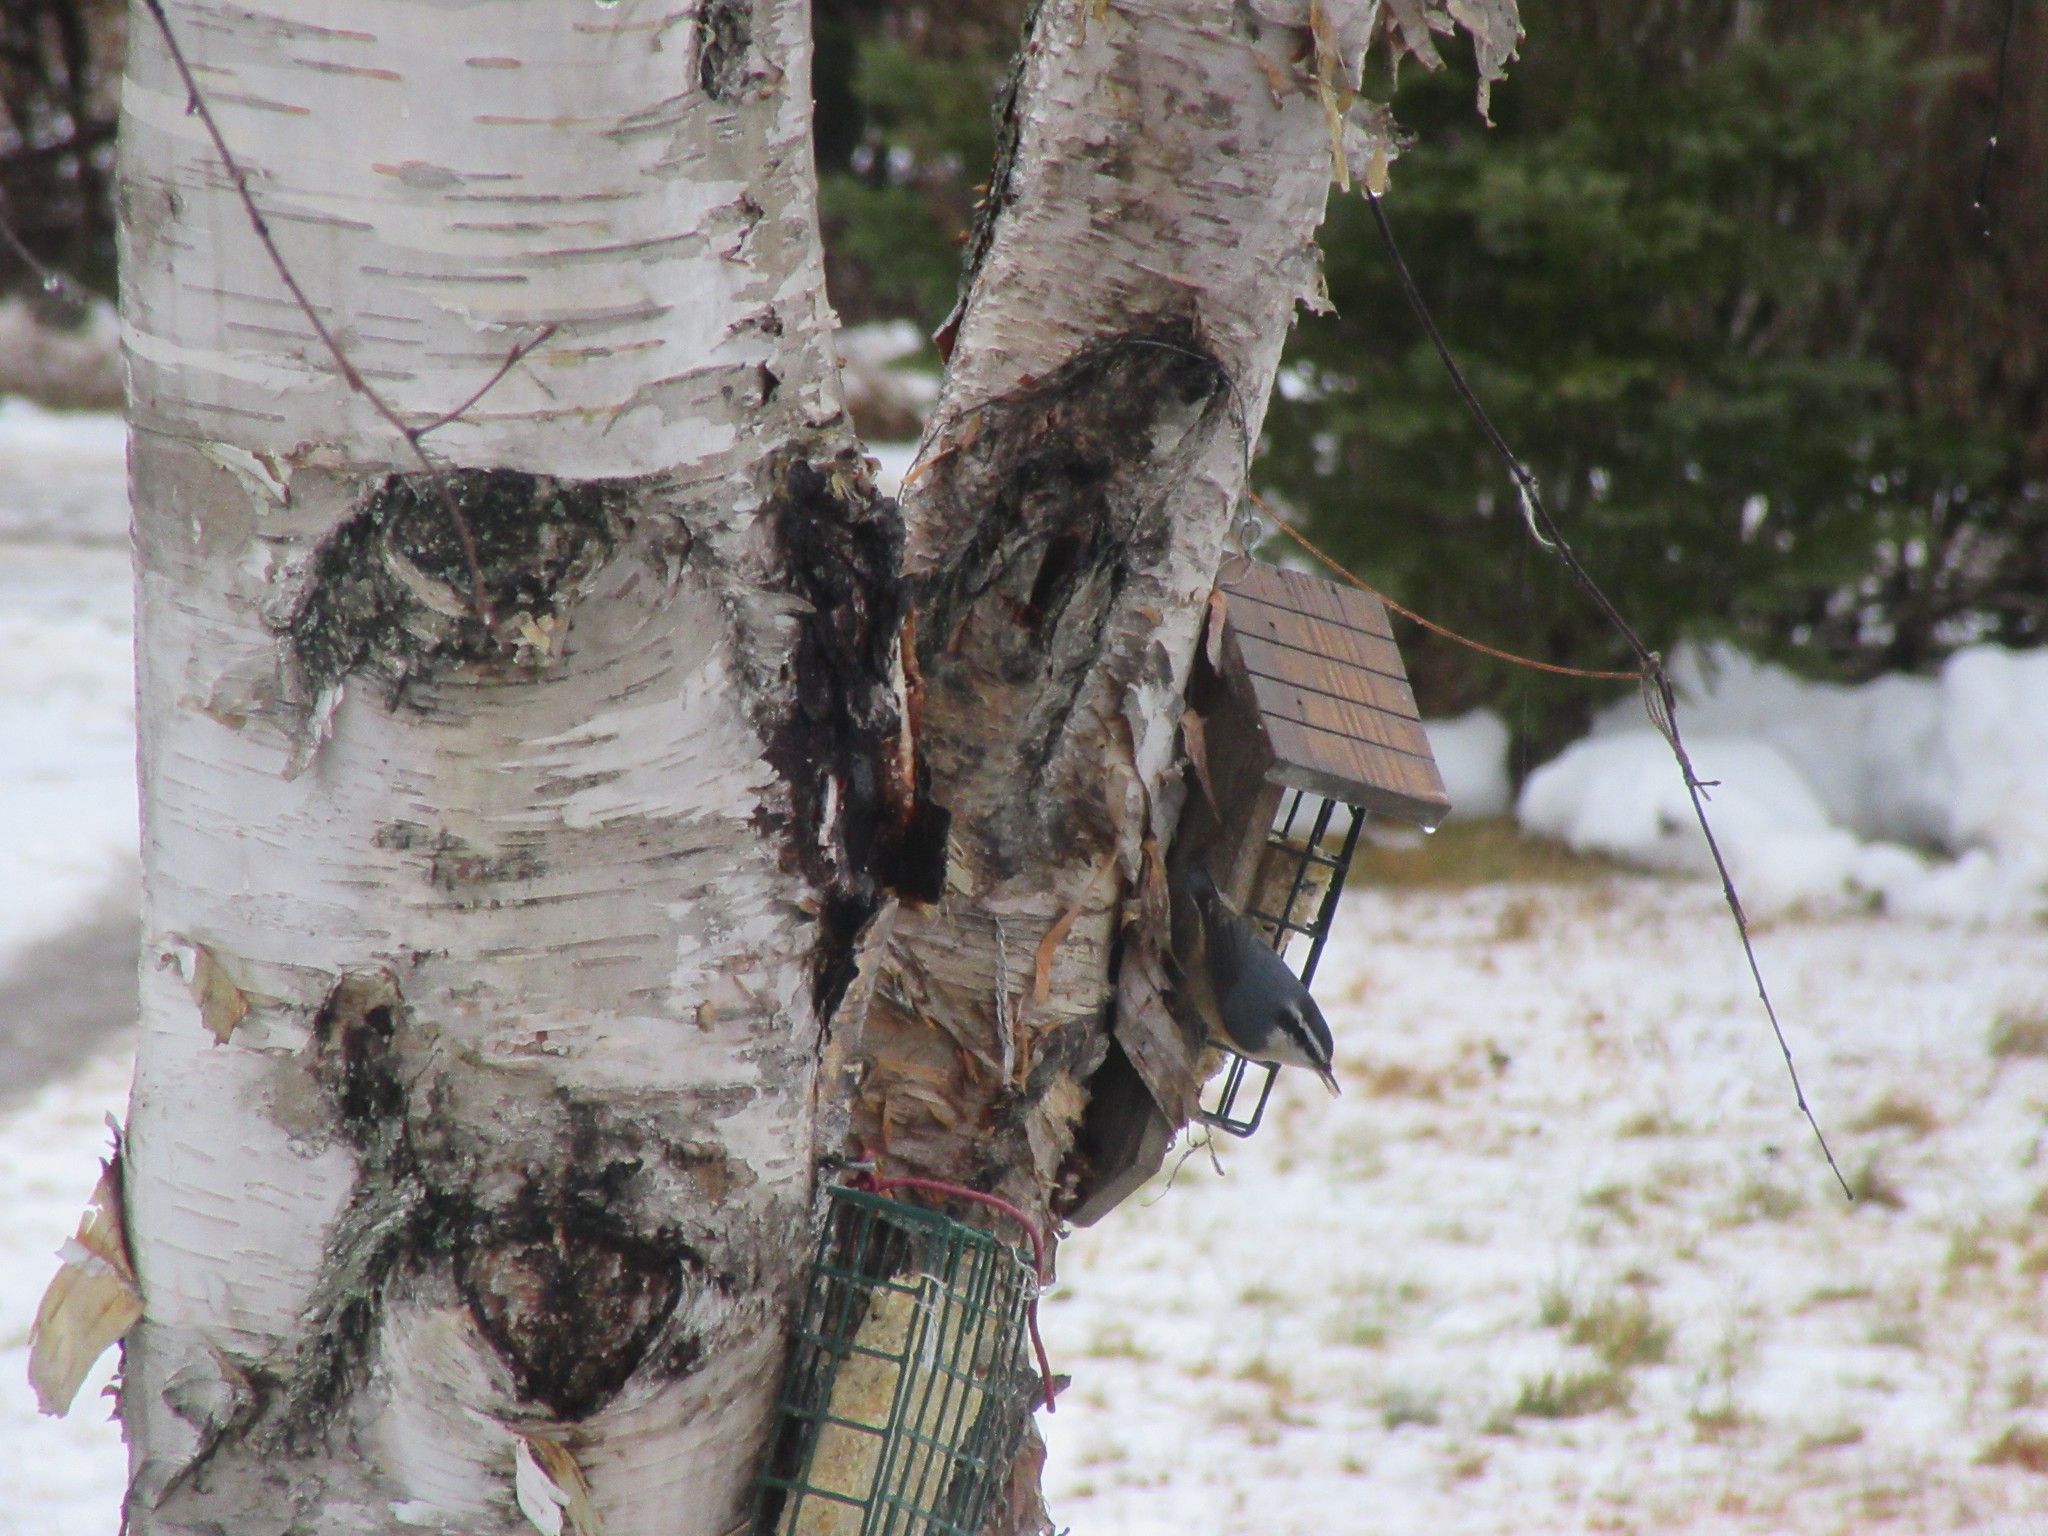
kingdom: Animalia
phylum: Chordata
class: Aves
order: Passeriformes
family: Sittidae
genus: Sitta
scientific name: Sitta canadensis
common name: Red-breasted nuthatch
